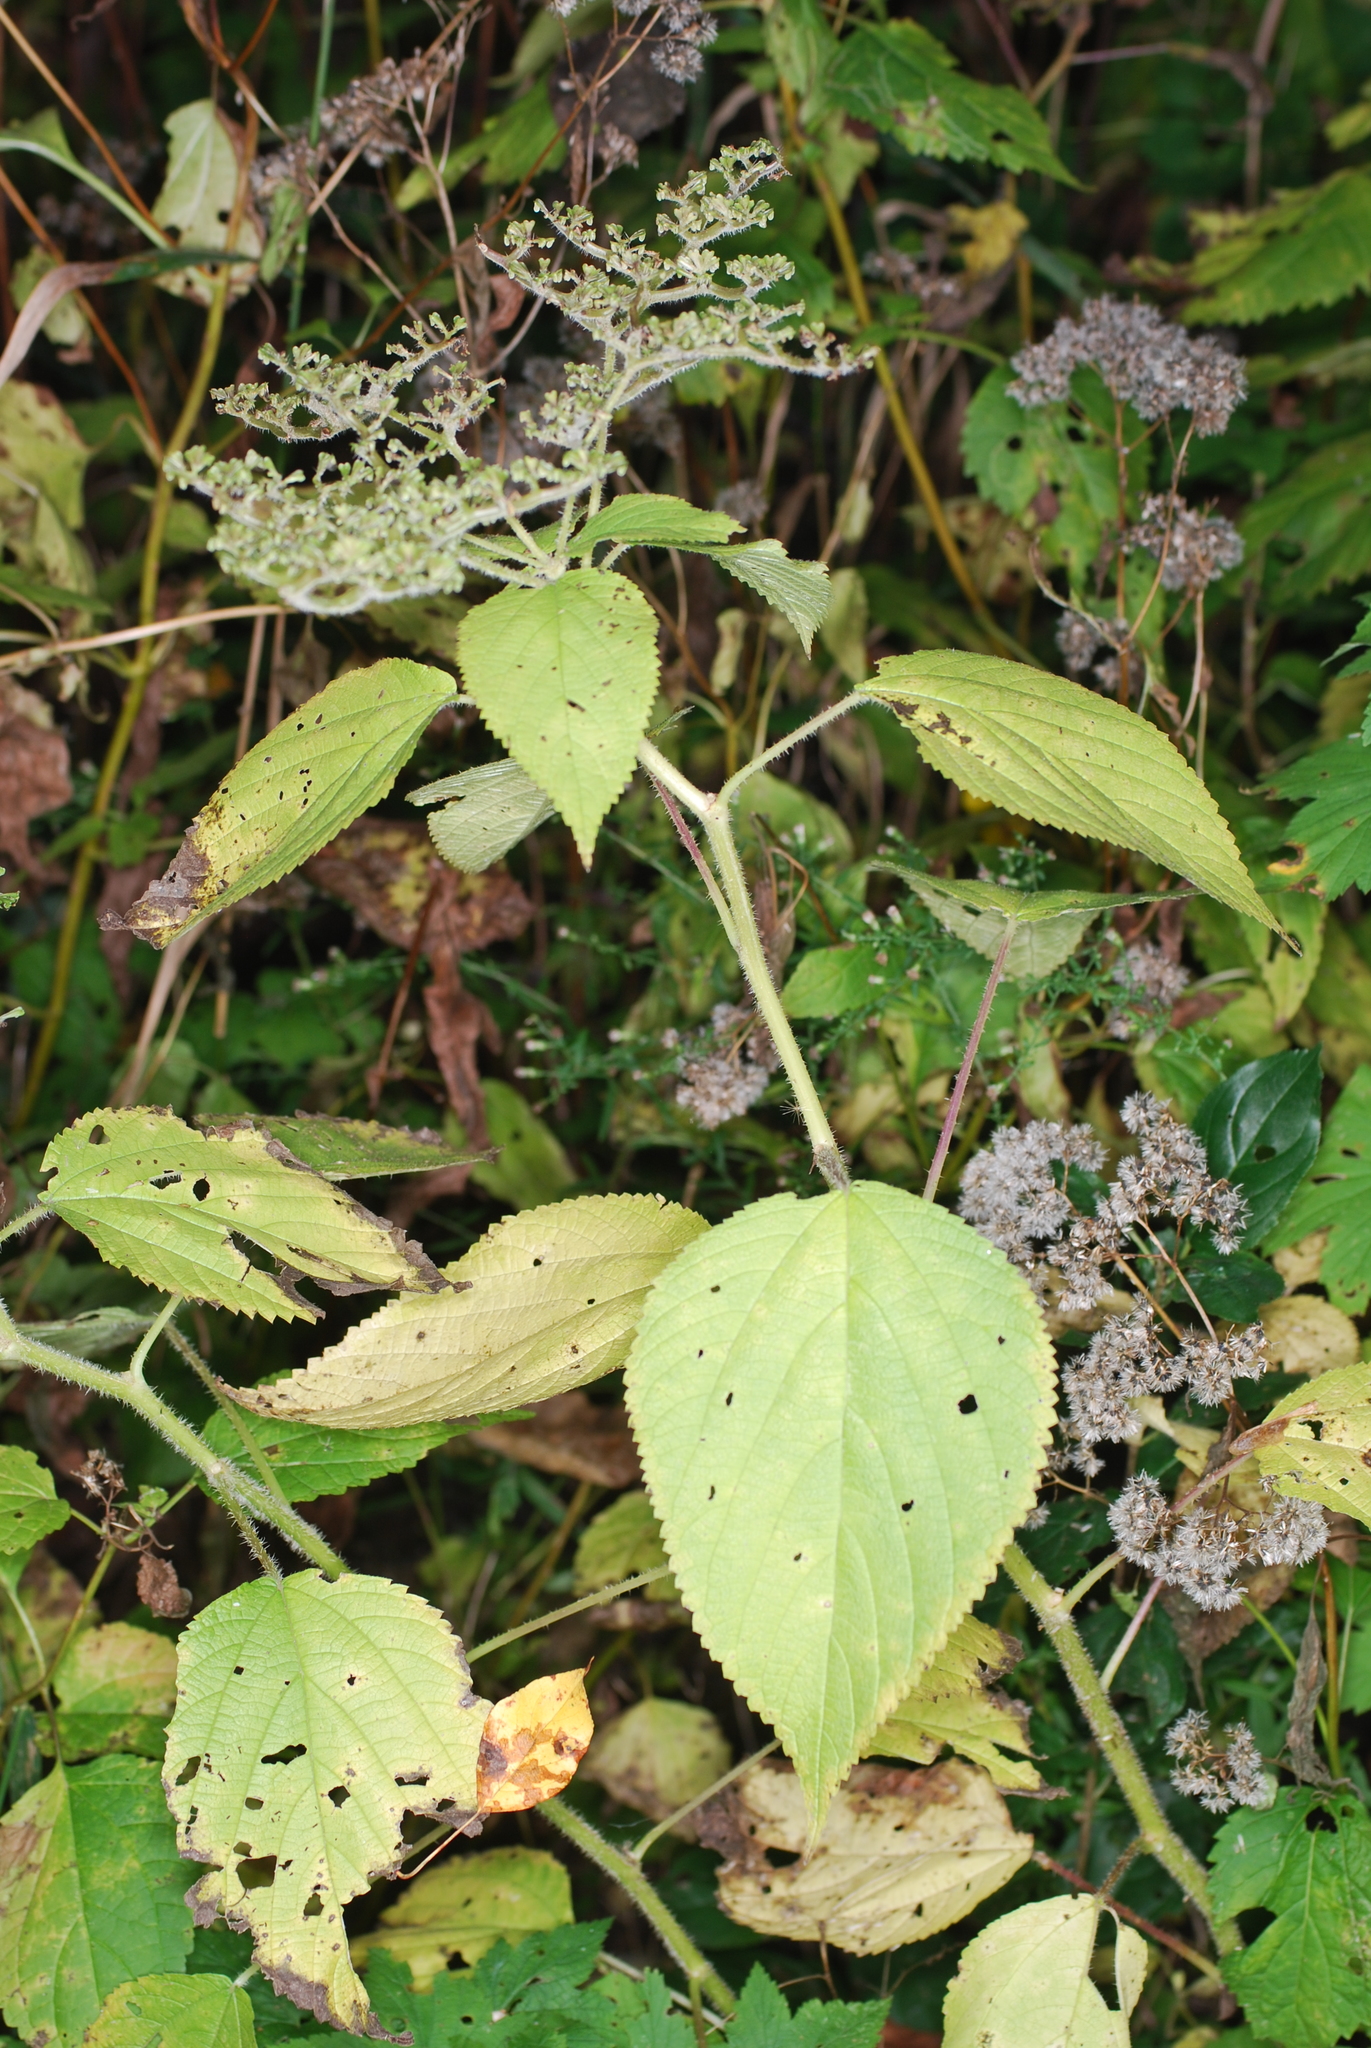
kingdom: Plantae
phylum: Tracheophyta
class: Magnoliopsida
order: Rosales
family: Urticaceae
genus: Laportea
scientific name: Laportea canadensis
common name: Canada nettle
